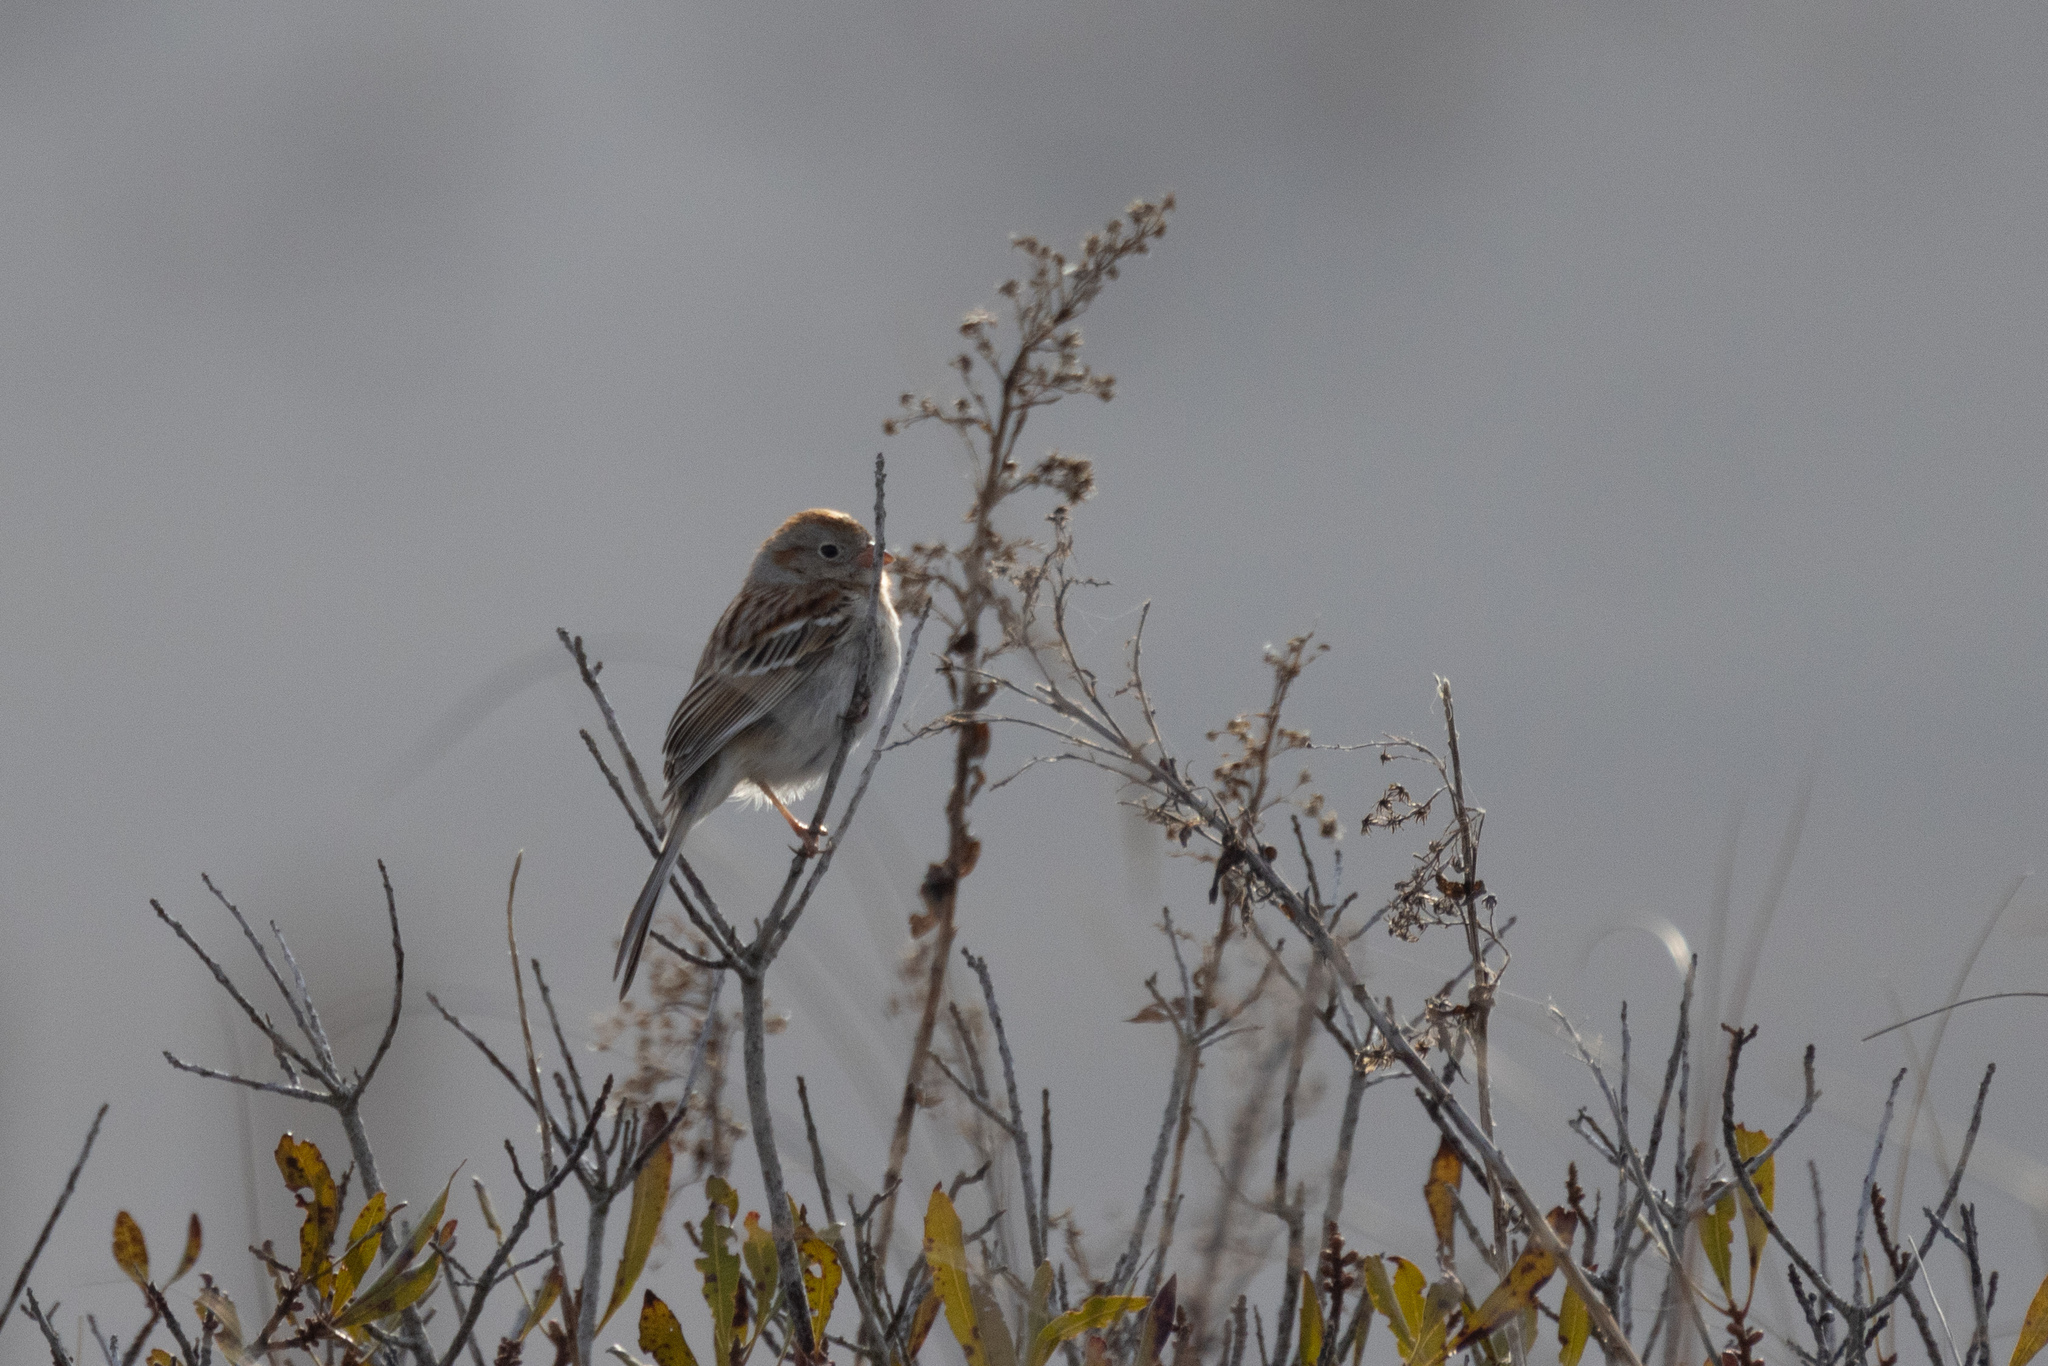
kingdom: Animalia
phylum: Chordata
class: Aves
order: Passeriformes
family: Passerellidae
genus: Spizella
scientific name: Spizella pusilla
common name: Field sparrow
